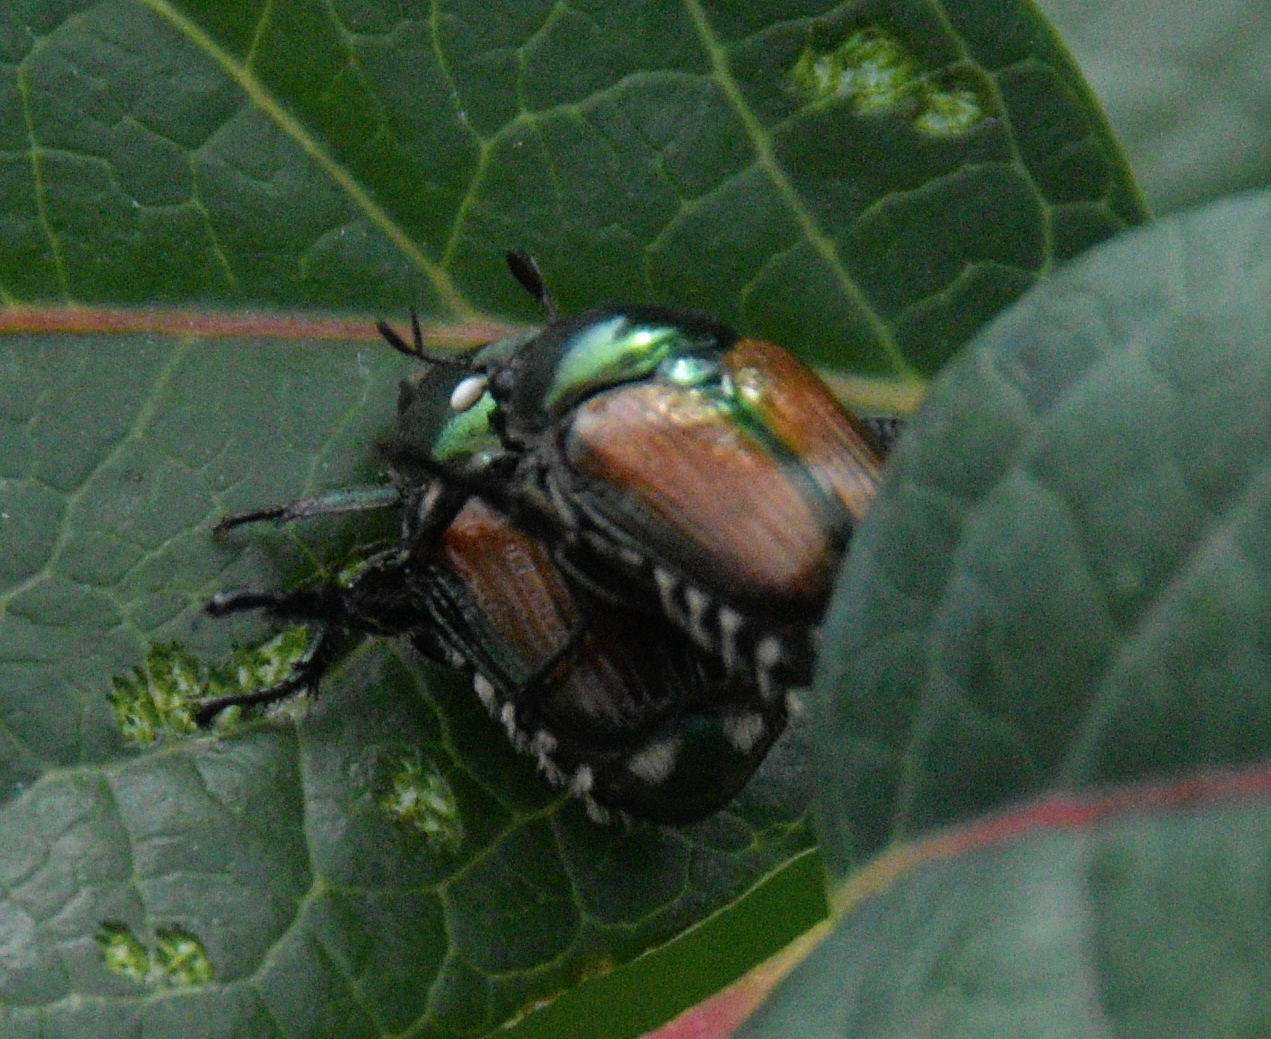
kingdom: Animalia
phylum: Arthropoda
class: Insecta
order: Coleoptera
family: Scarabaeidae
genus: Popillia
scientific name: Popillia japonica
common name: Japanese beetle
